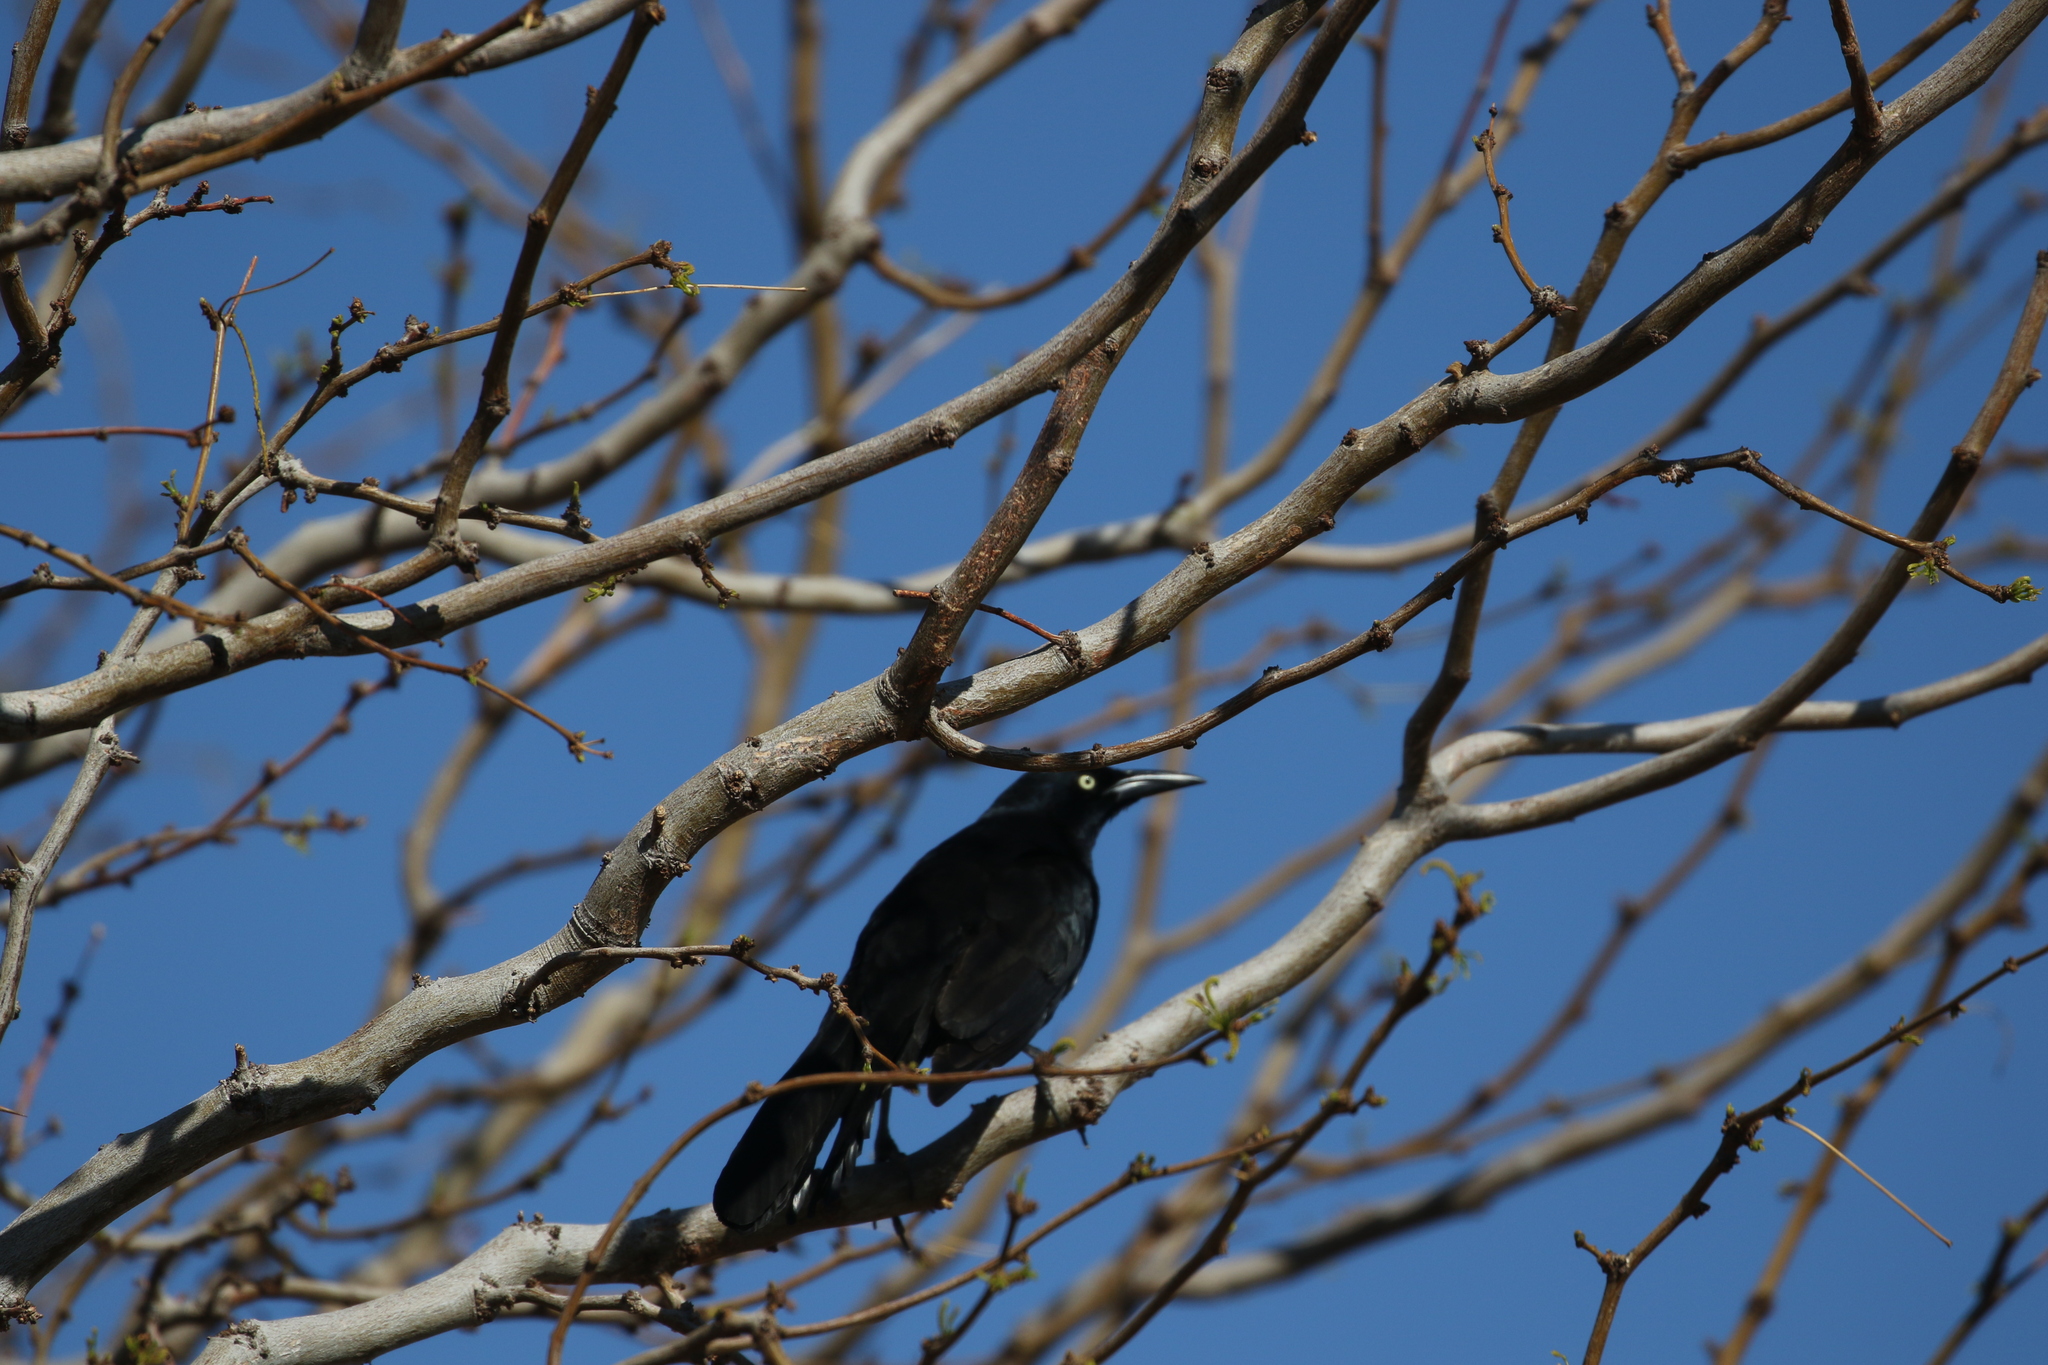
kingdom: Animalia
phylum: Chordata
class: Aves
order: Passeriformes
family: Icteridae
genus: Quiscalus
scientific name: Quiscalus mexicanus
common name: Great-tailed grackle
